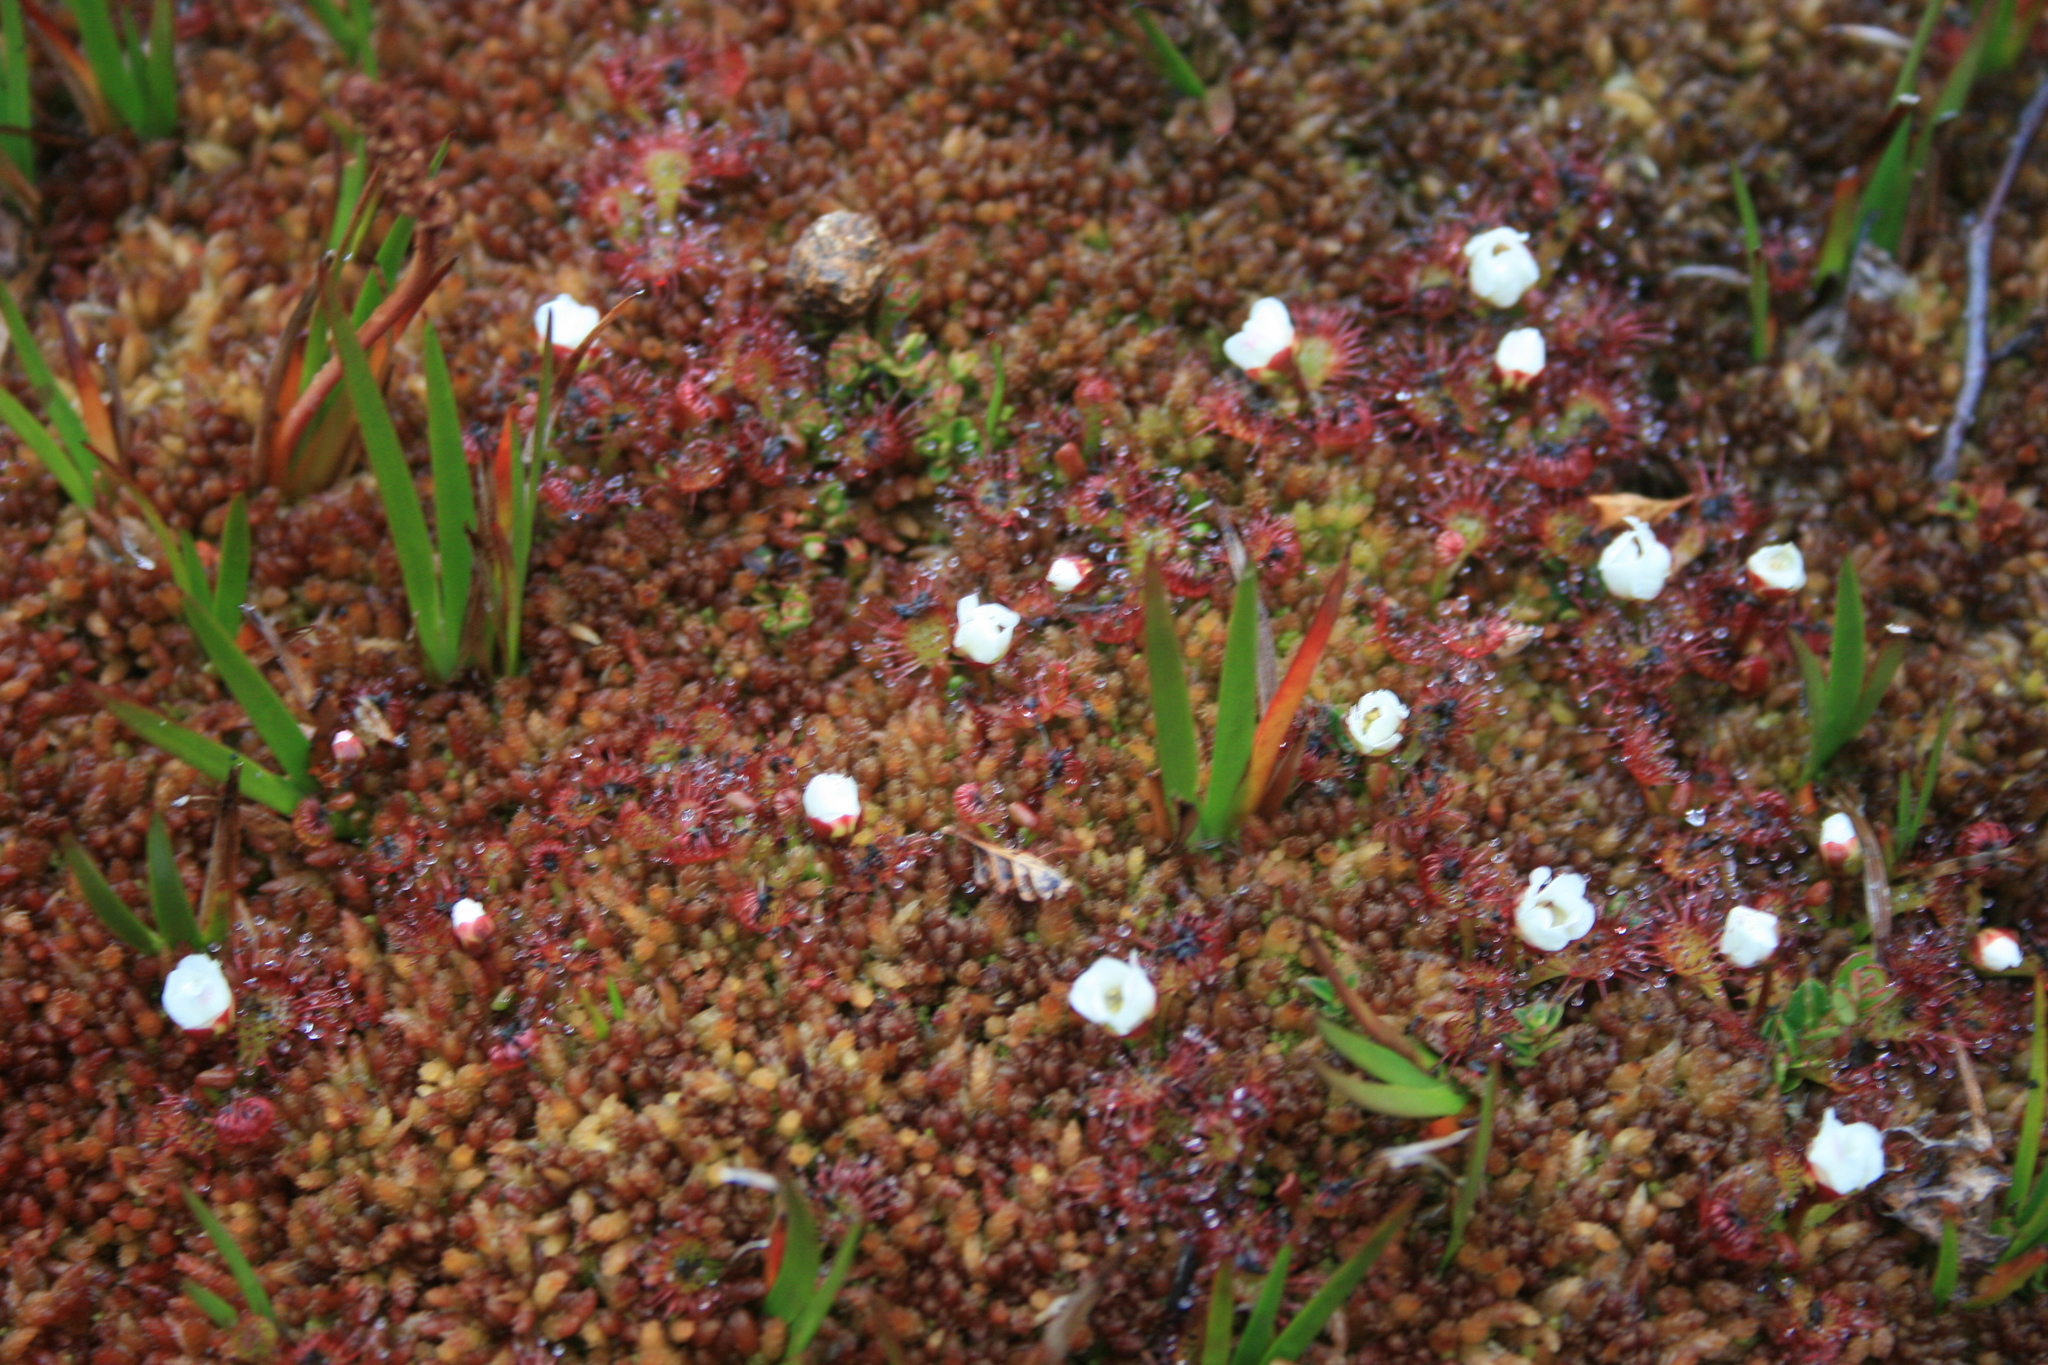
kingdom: Plantae
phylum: Tracheophyta
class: Magnoliopsida
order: Caryophyllales
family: Droseraceae
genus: Drosera
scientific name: Drosera uniflora
